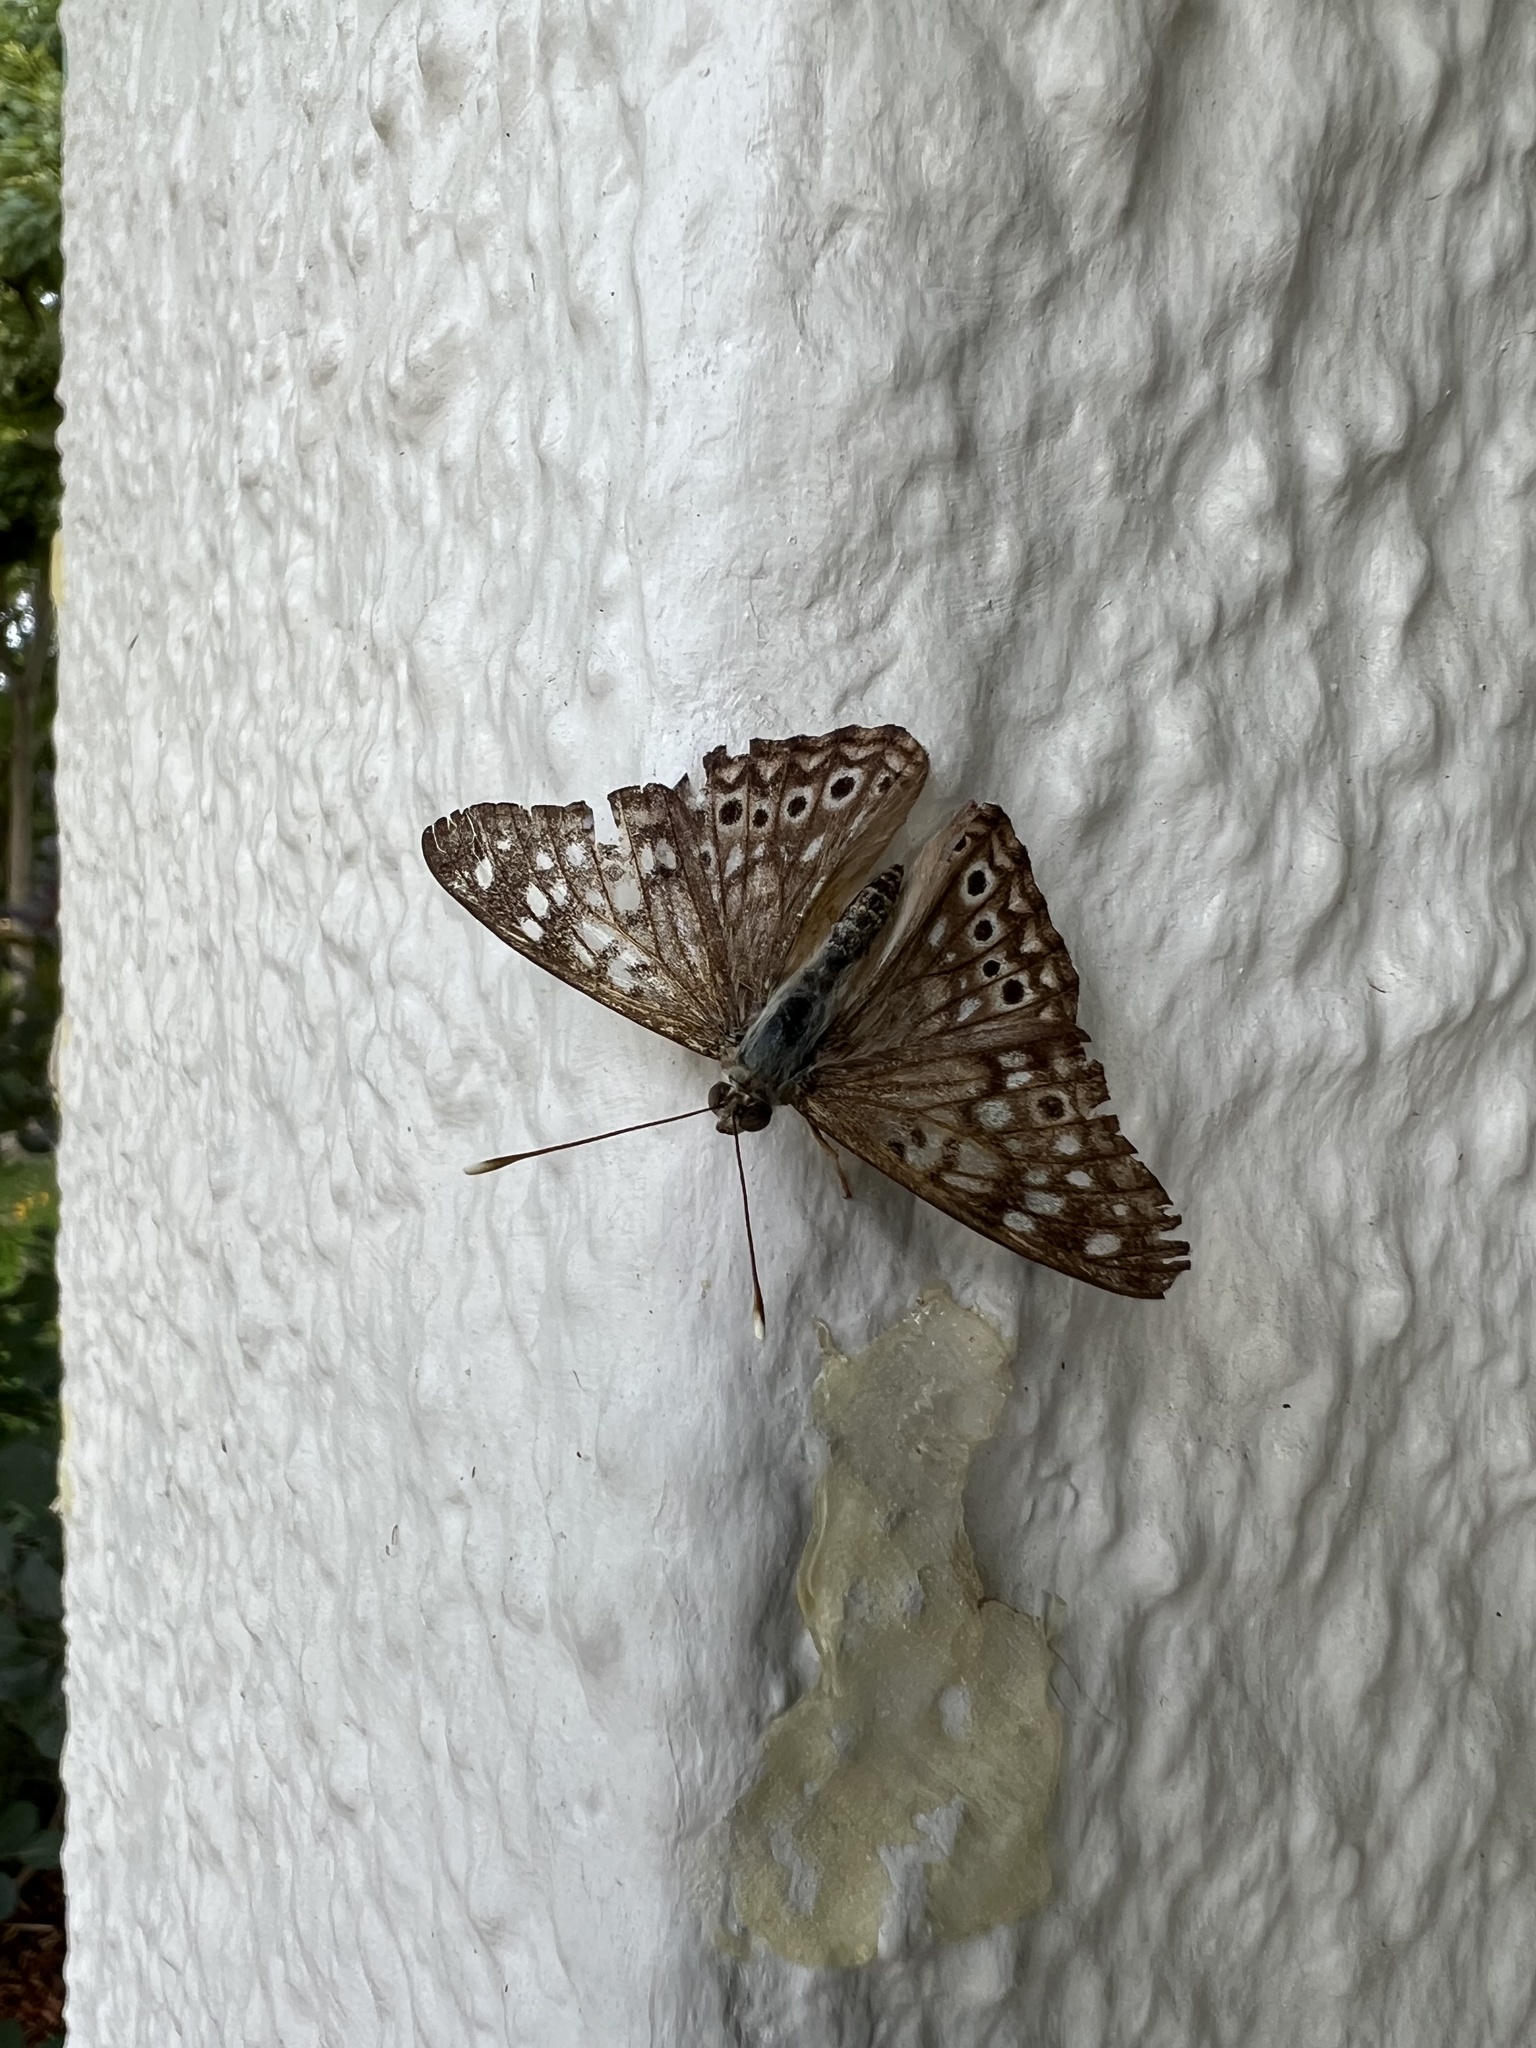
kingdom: Animalia
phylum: Arthropoda
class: Insecta
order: Lepidoptera
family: Nymphalidae
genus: Asterocampa
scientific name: Asterocampa celtis
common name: Hackberry emperor
